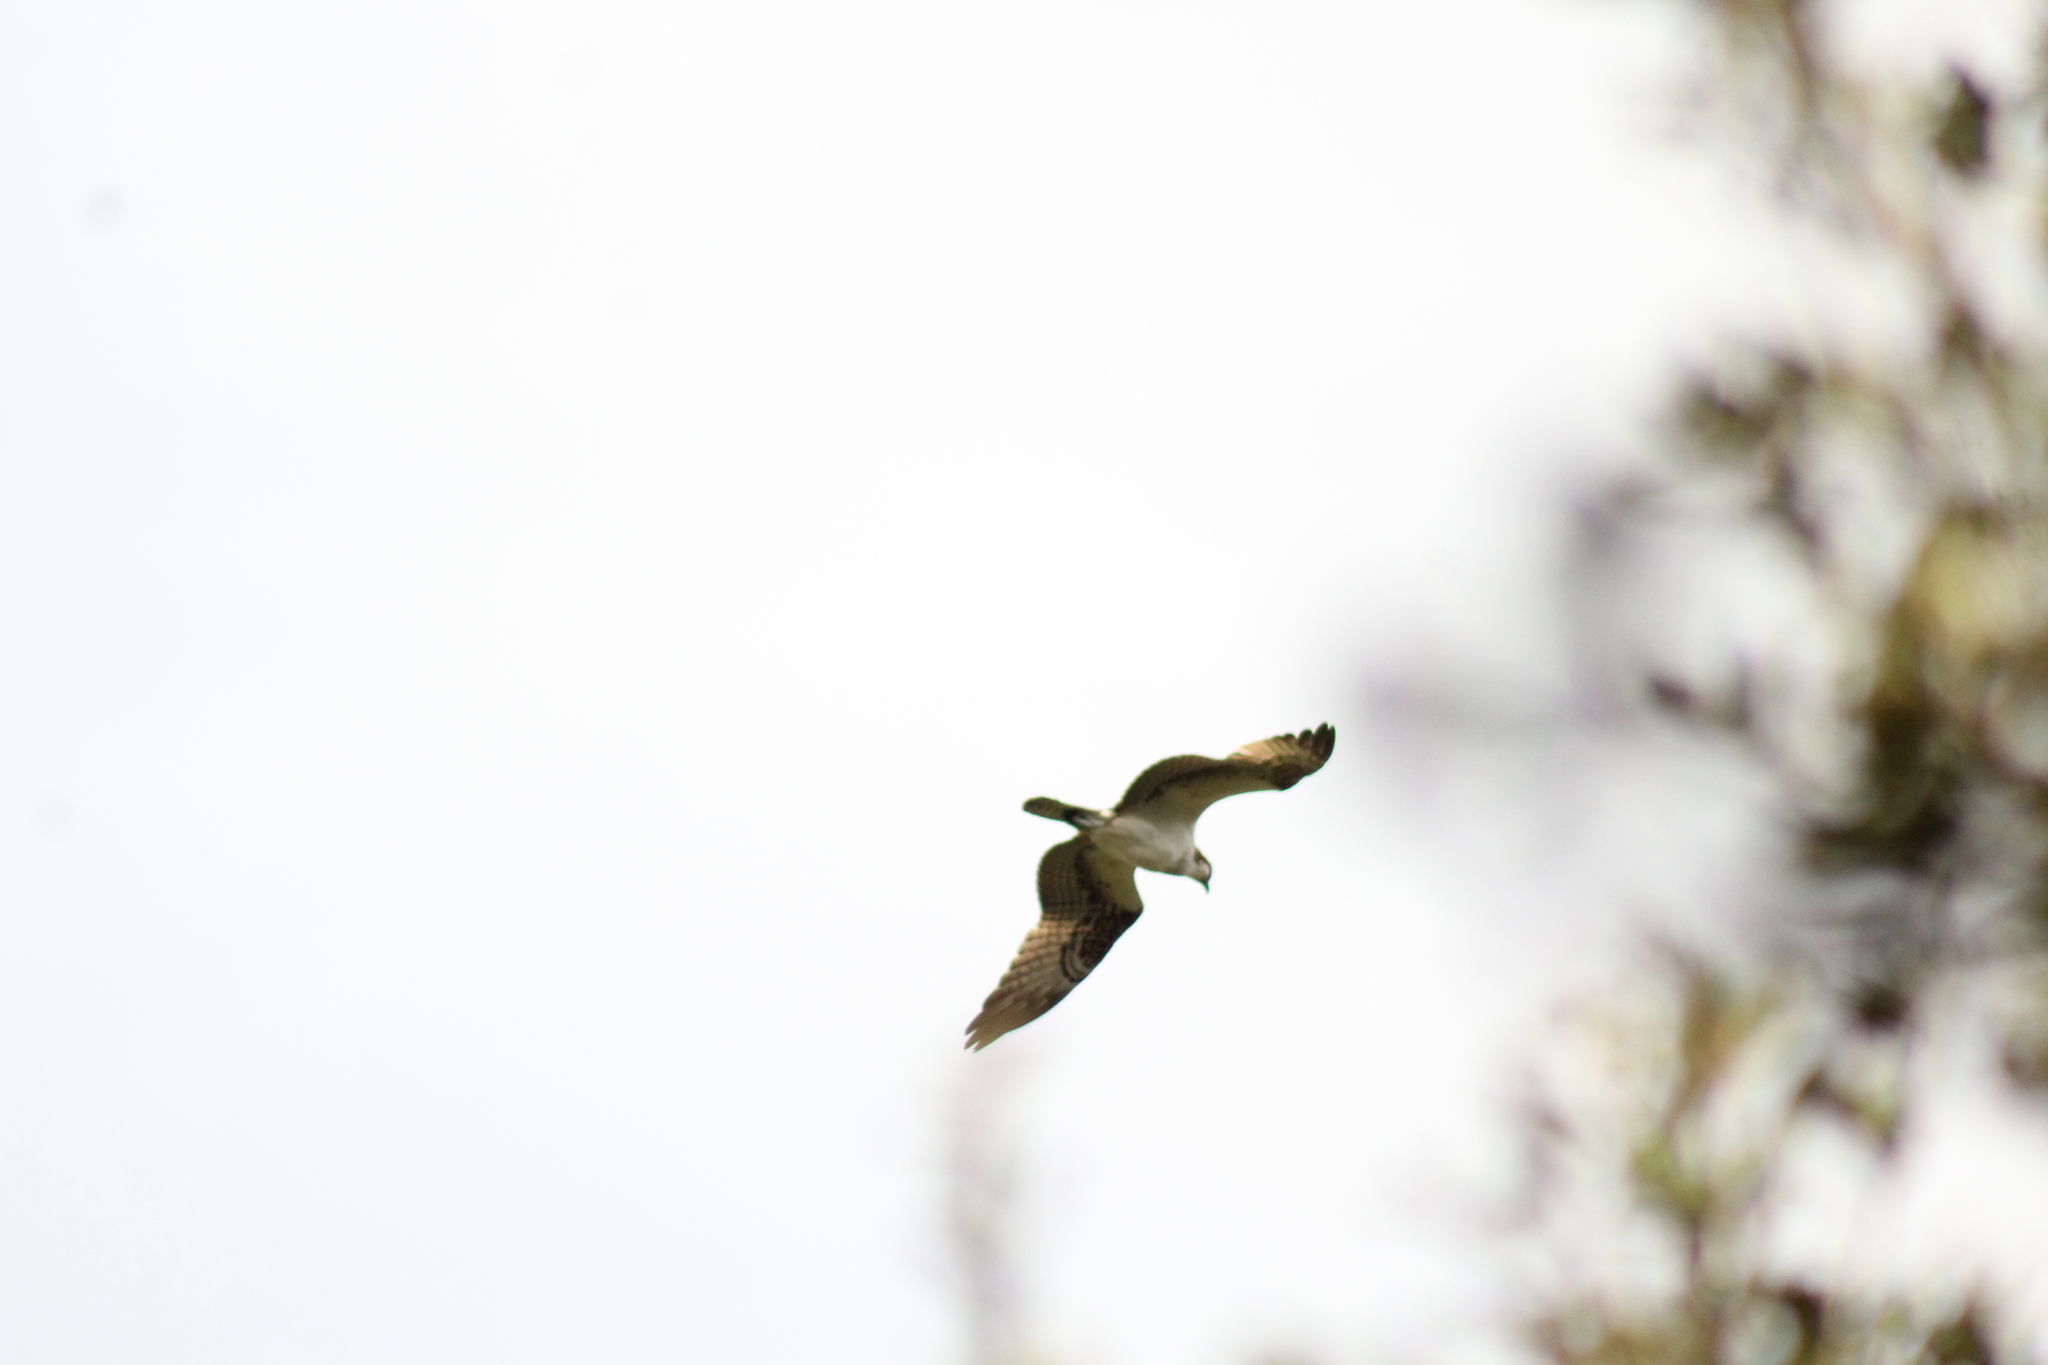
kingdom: Animalia
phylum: Chordata
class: Aves
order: Accipitriformes
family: Pandionidae
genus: Pandion
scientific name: Pandion haliaetus
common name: Osprey
